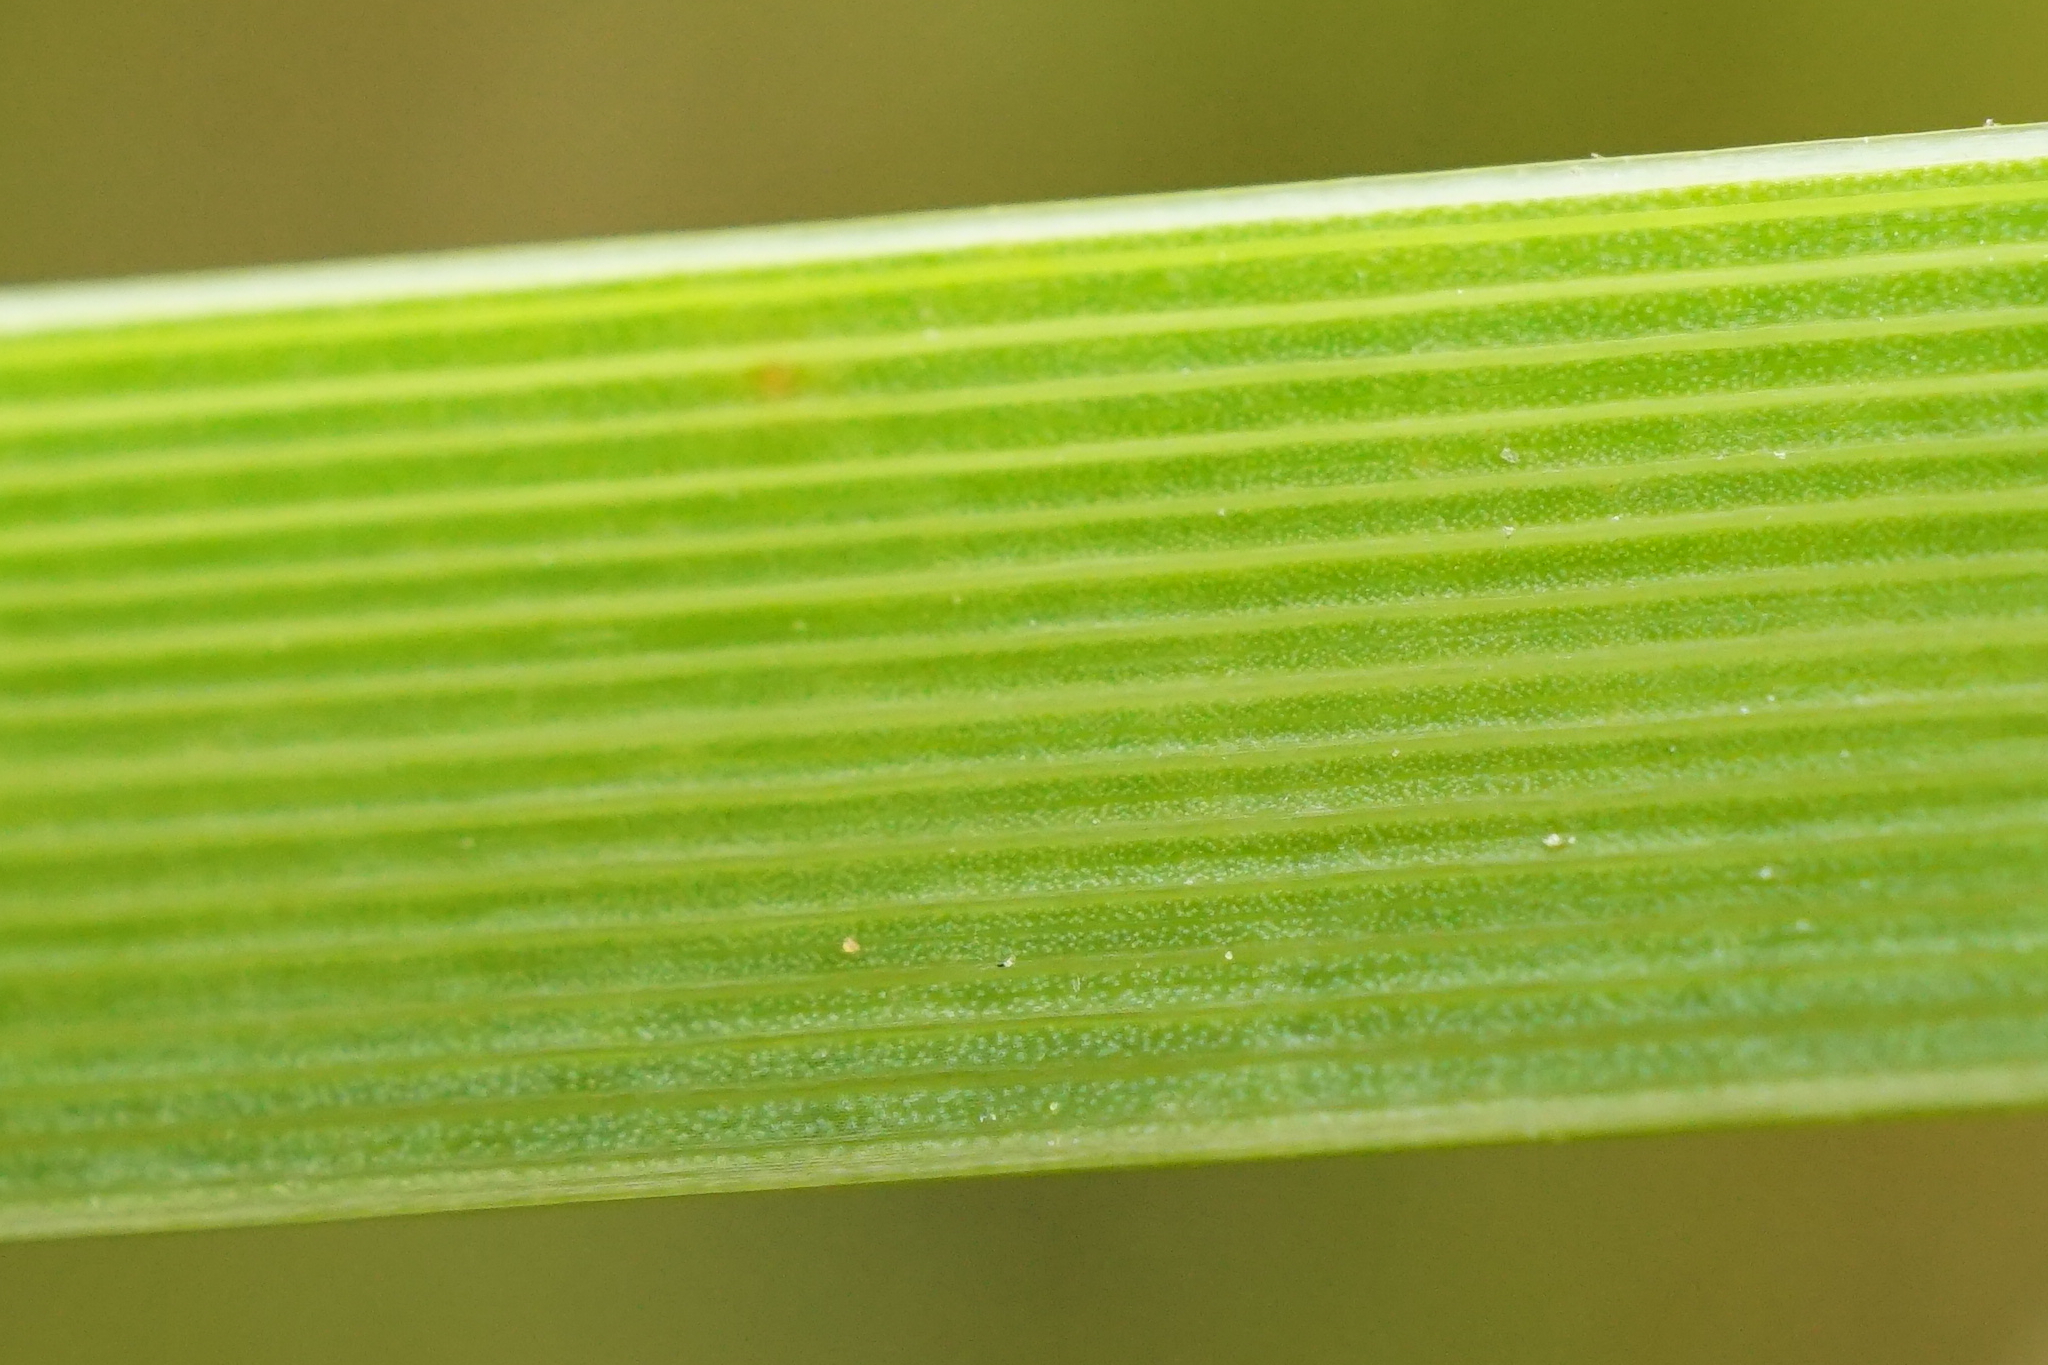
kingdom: Plantae
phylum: Tracheophyta
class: Liliopsida
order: Poales
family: Typhaceae
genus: Typha
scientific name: Typha laxmannii
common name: Laxman’s bulrush
